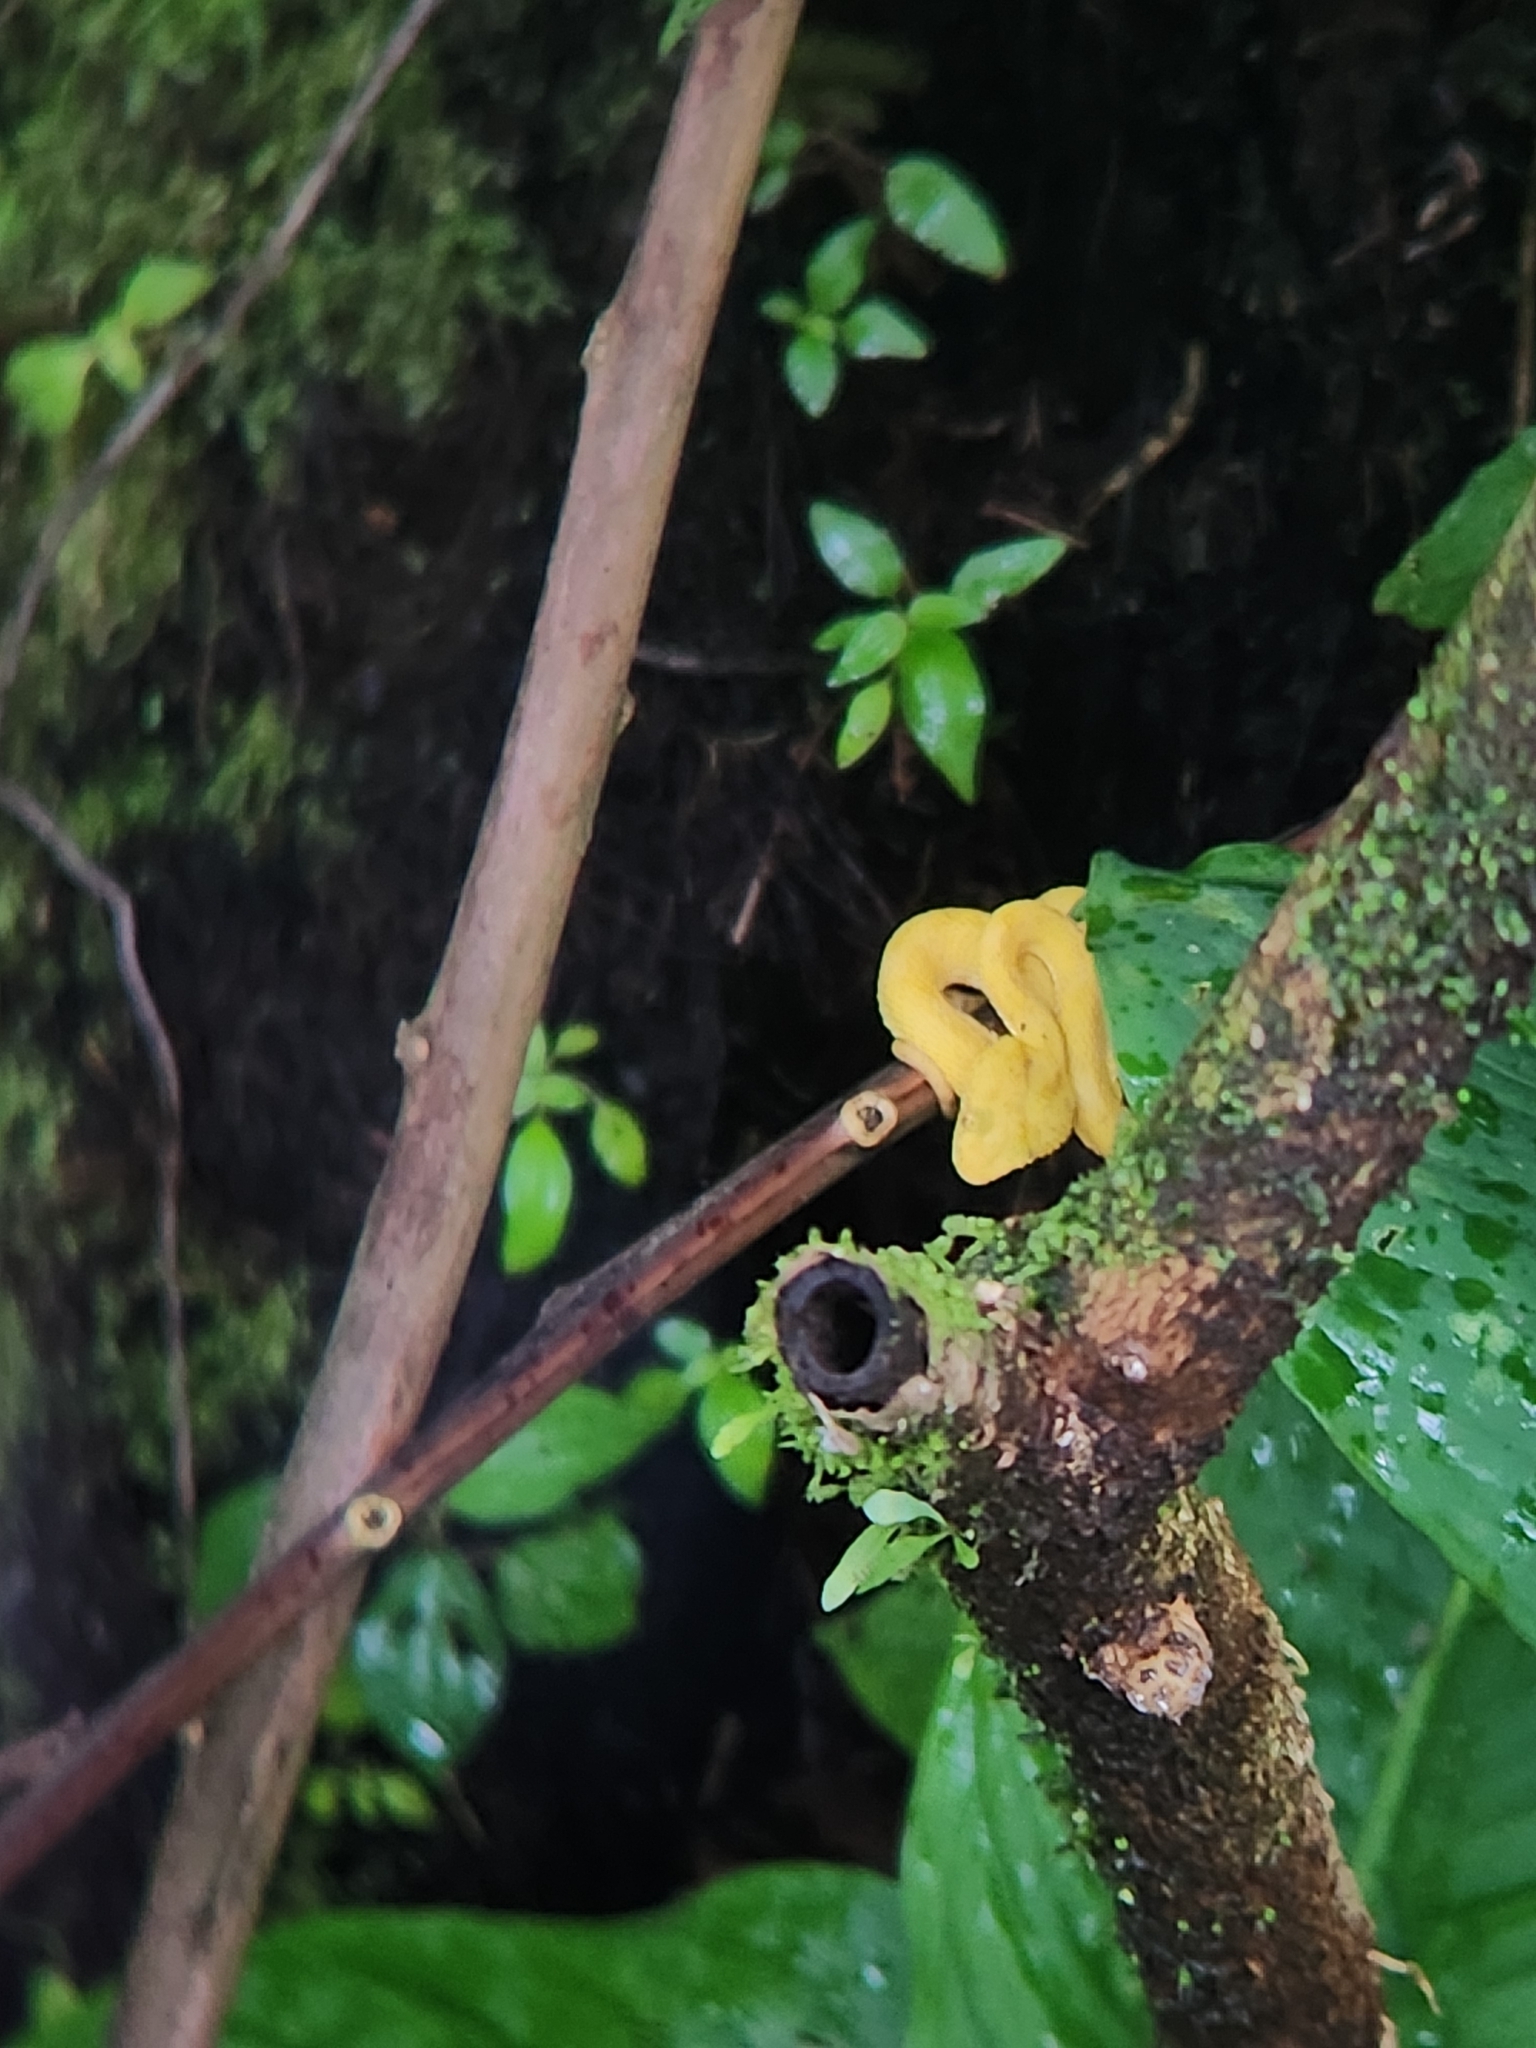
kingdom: Animalia
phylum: Chordata
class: Squamata
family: Viperidae
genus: Bothriechis
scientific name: Bothriechis schlegelii
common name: Eyelash viper
